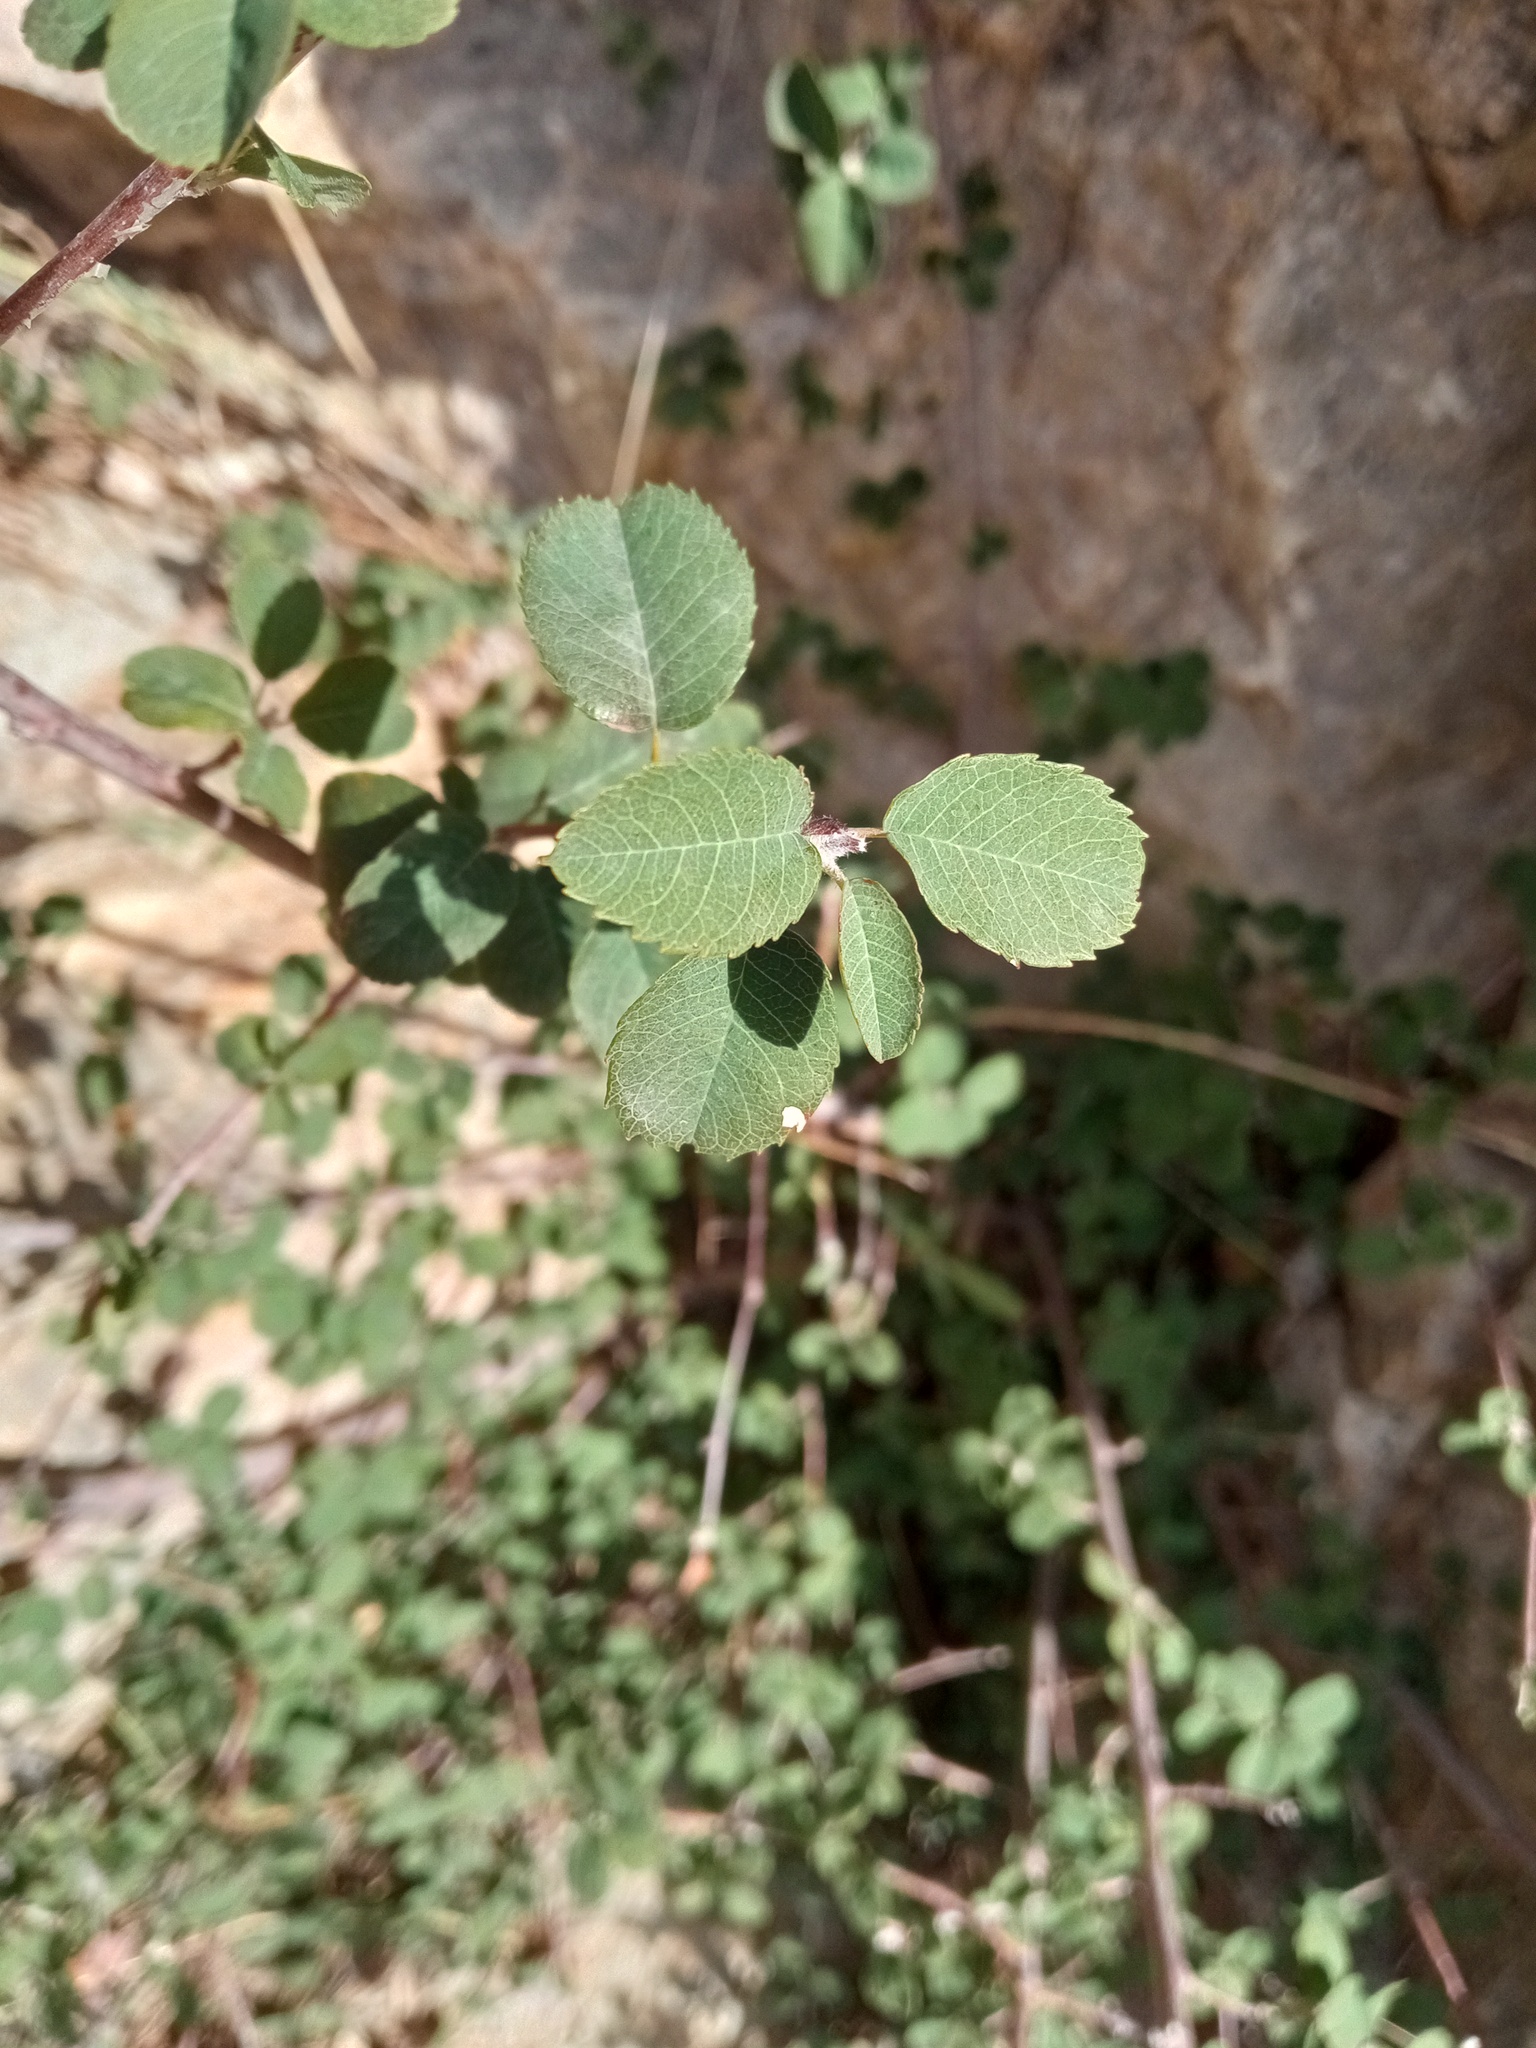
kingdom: Plantae
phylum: Tracheophyta
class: Magnoliopsida
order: Rosales
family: Rosaceae
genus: Amelanchier
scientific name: Amelanchier ovalis
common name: Serviceberry
